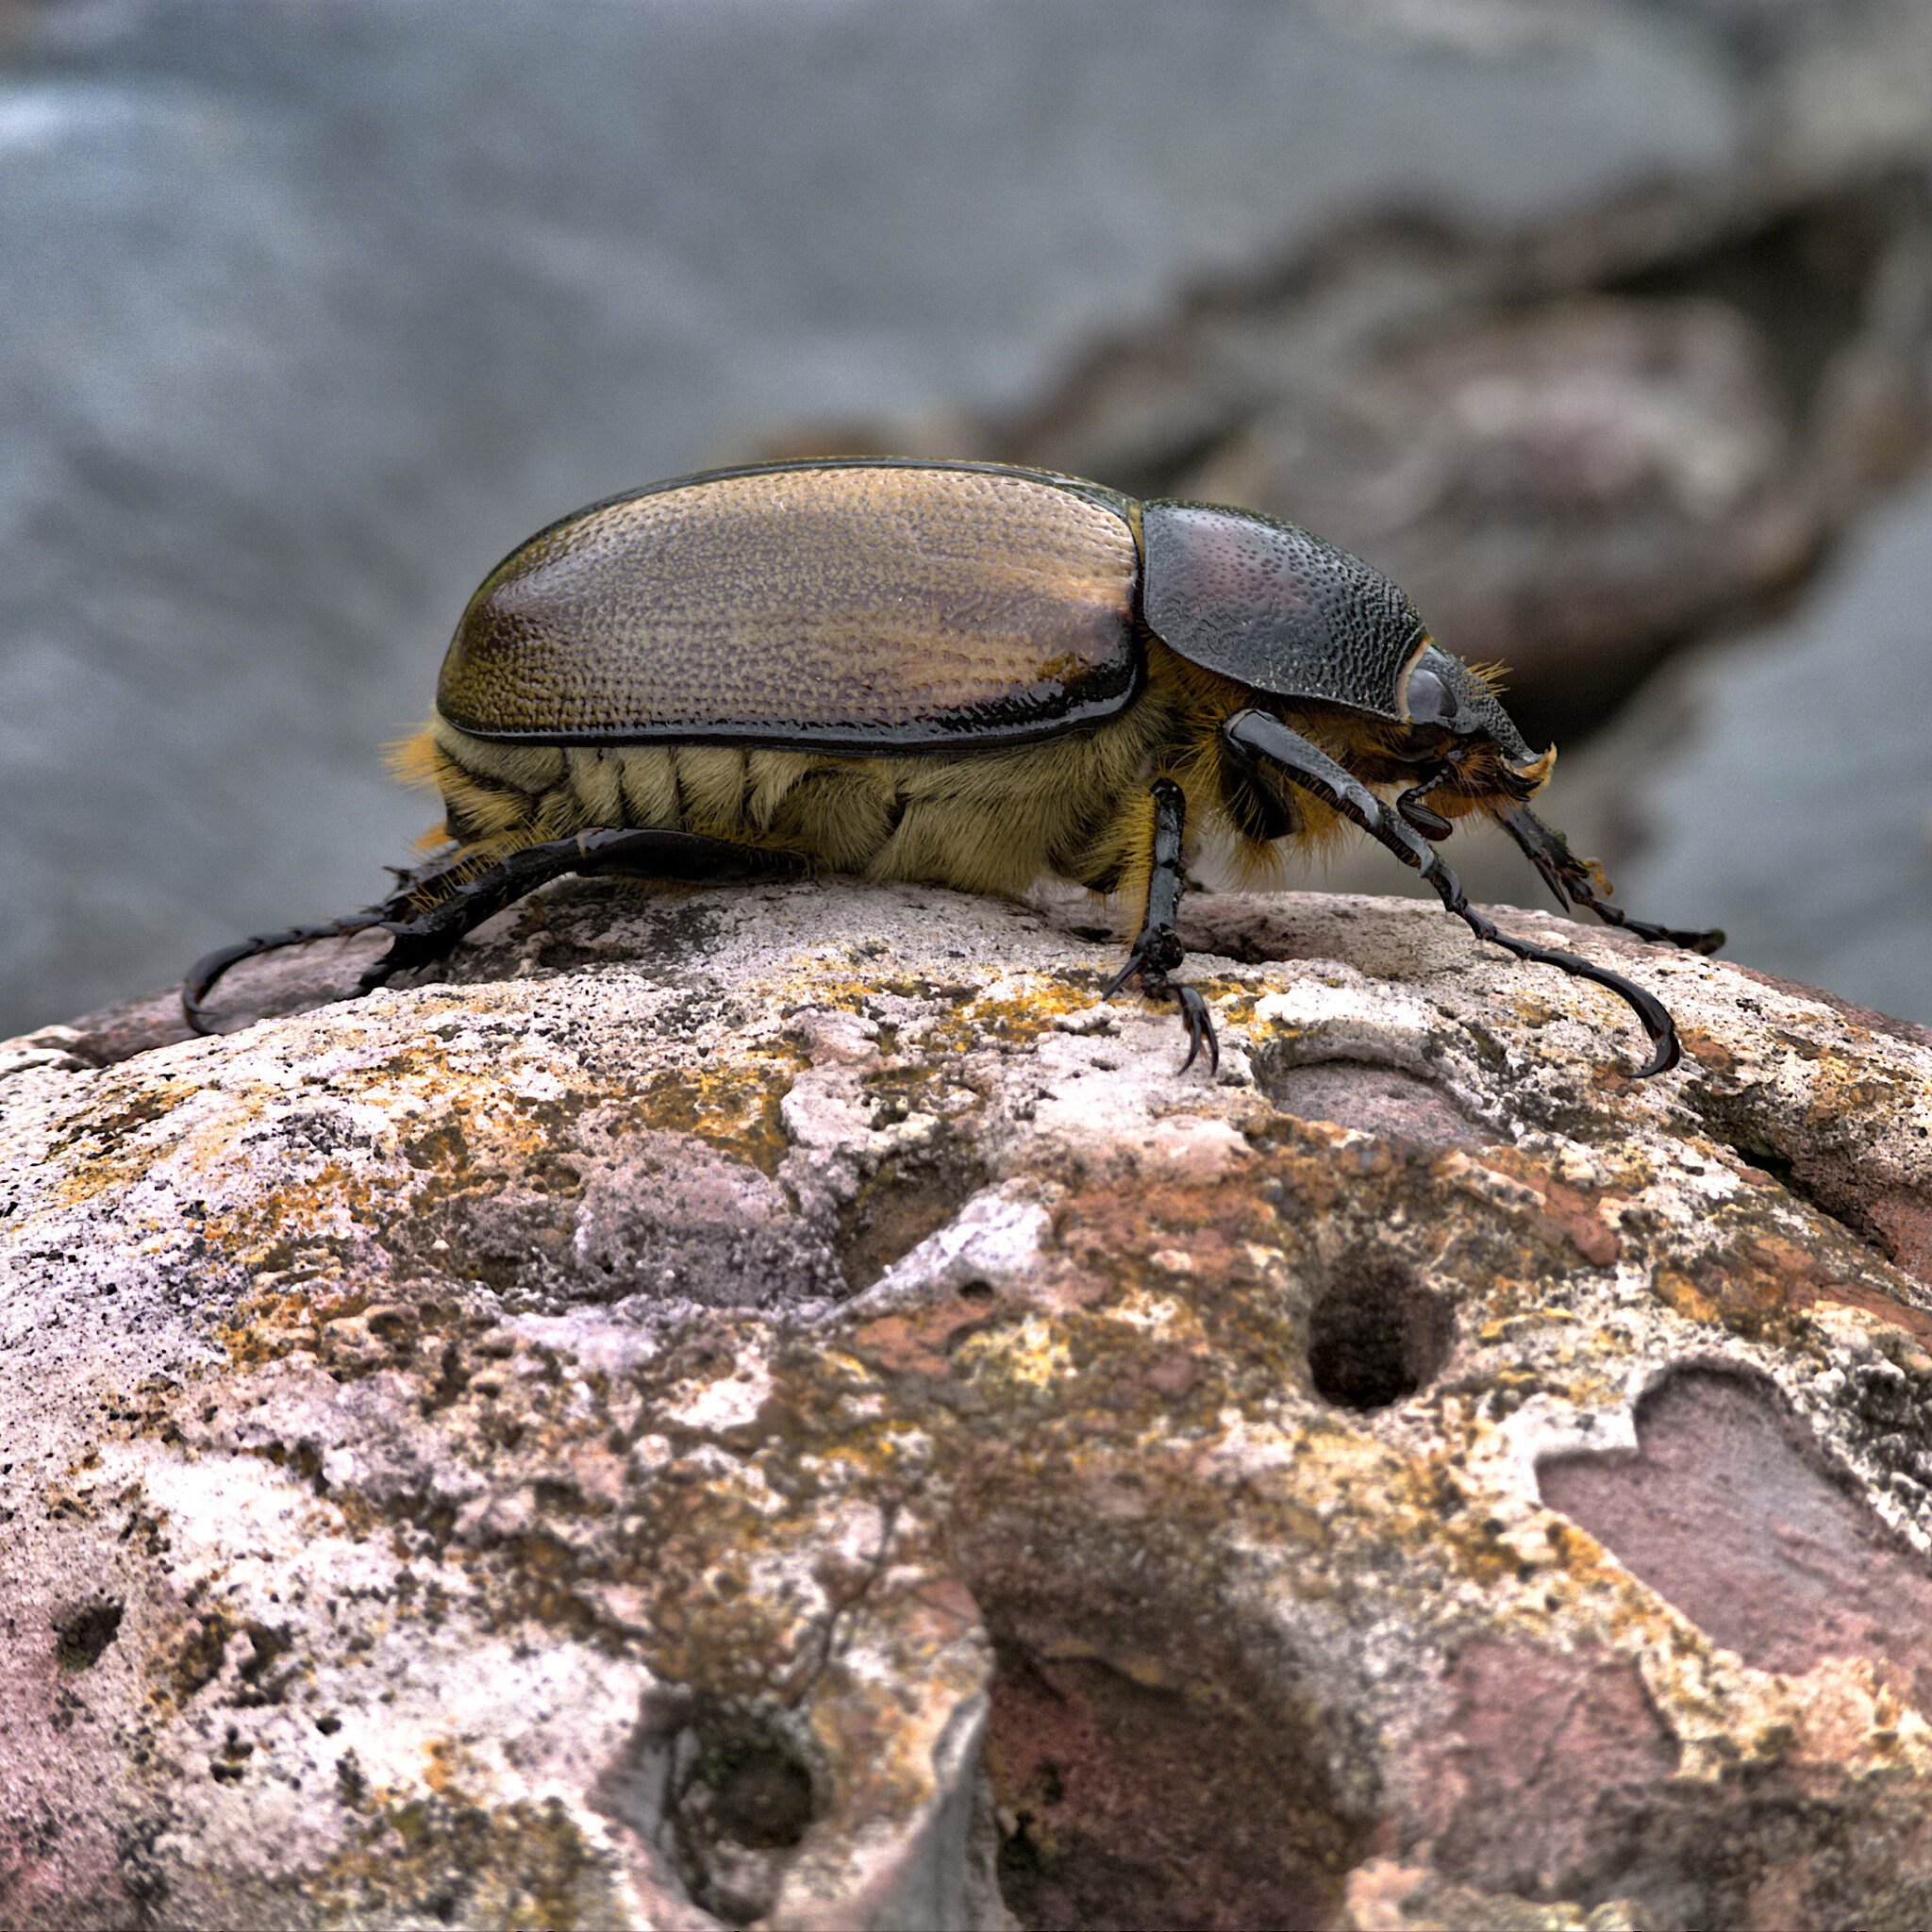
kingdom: Animalia
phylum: Arthropoda
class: Insecta
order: Coleoptera
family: Scarabaeidae
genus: Golofa
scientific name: Golofa eacus
